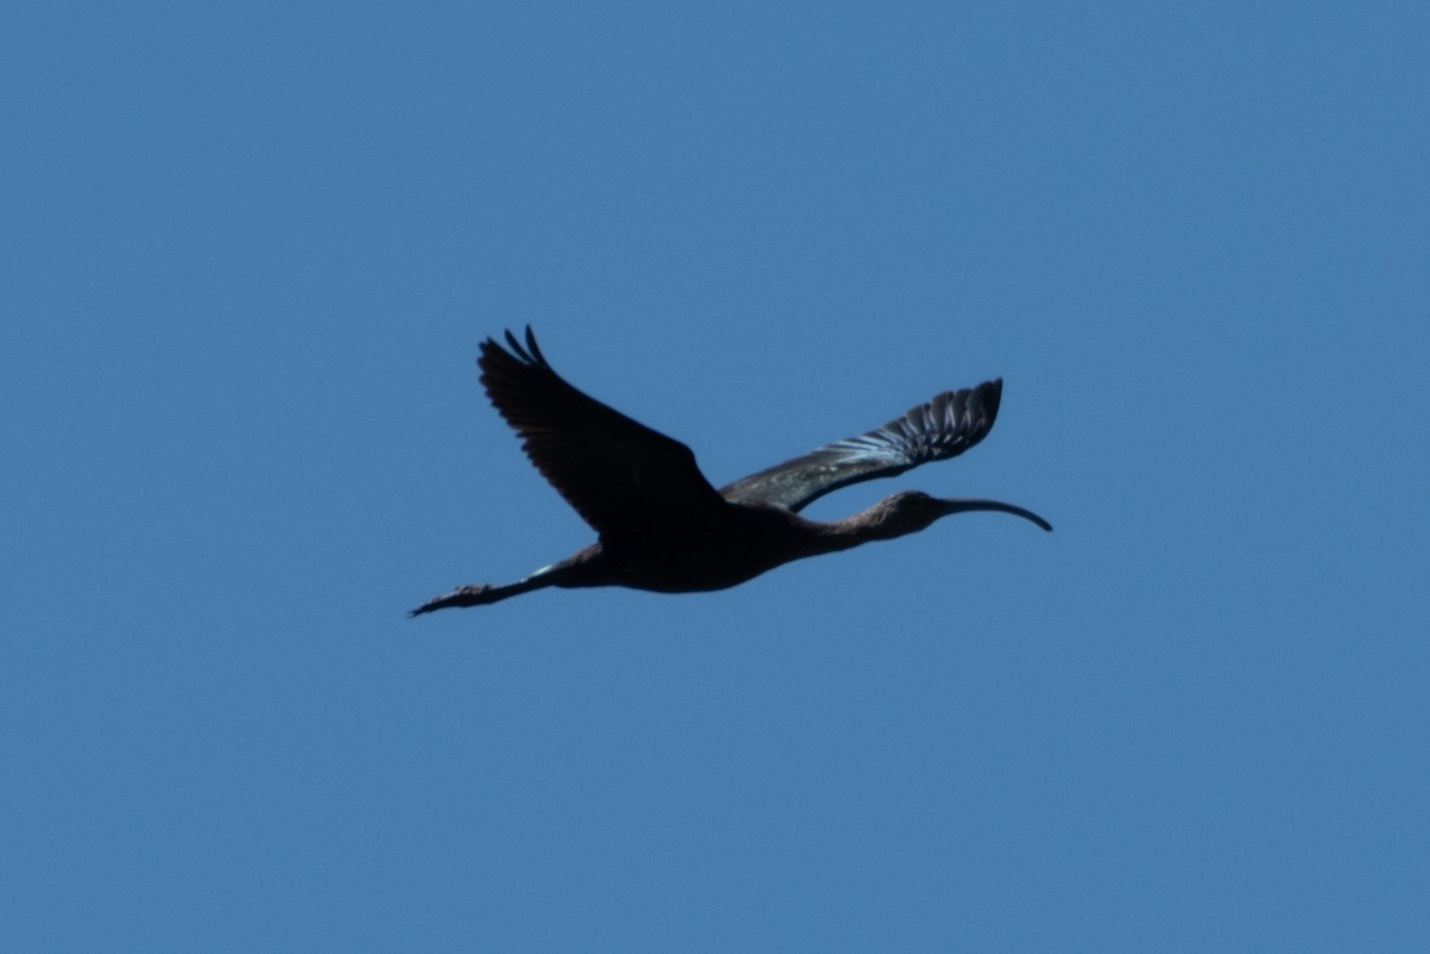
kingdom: Animalia
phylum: Chordata
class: Aves
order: Pelecaniformes
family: Threskiornithidae
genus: Plegadis
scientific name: Plegadis chihi
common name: White-faced ibis
